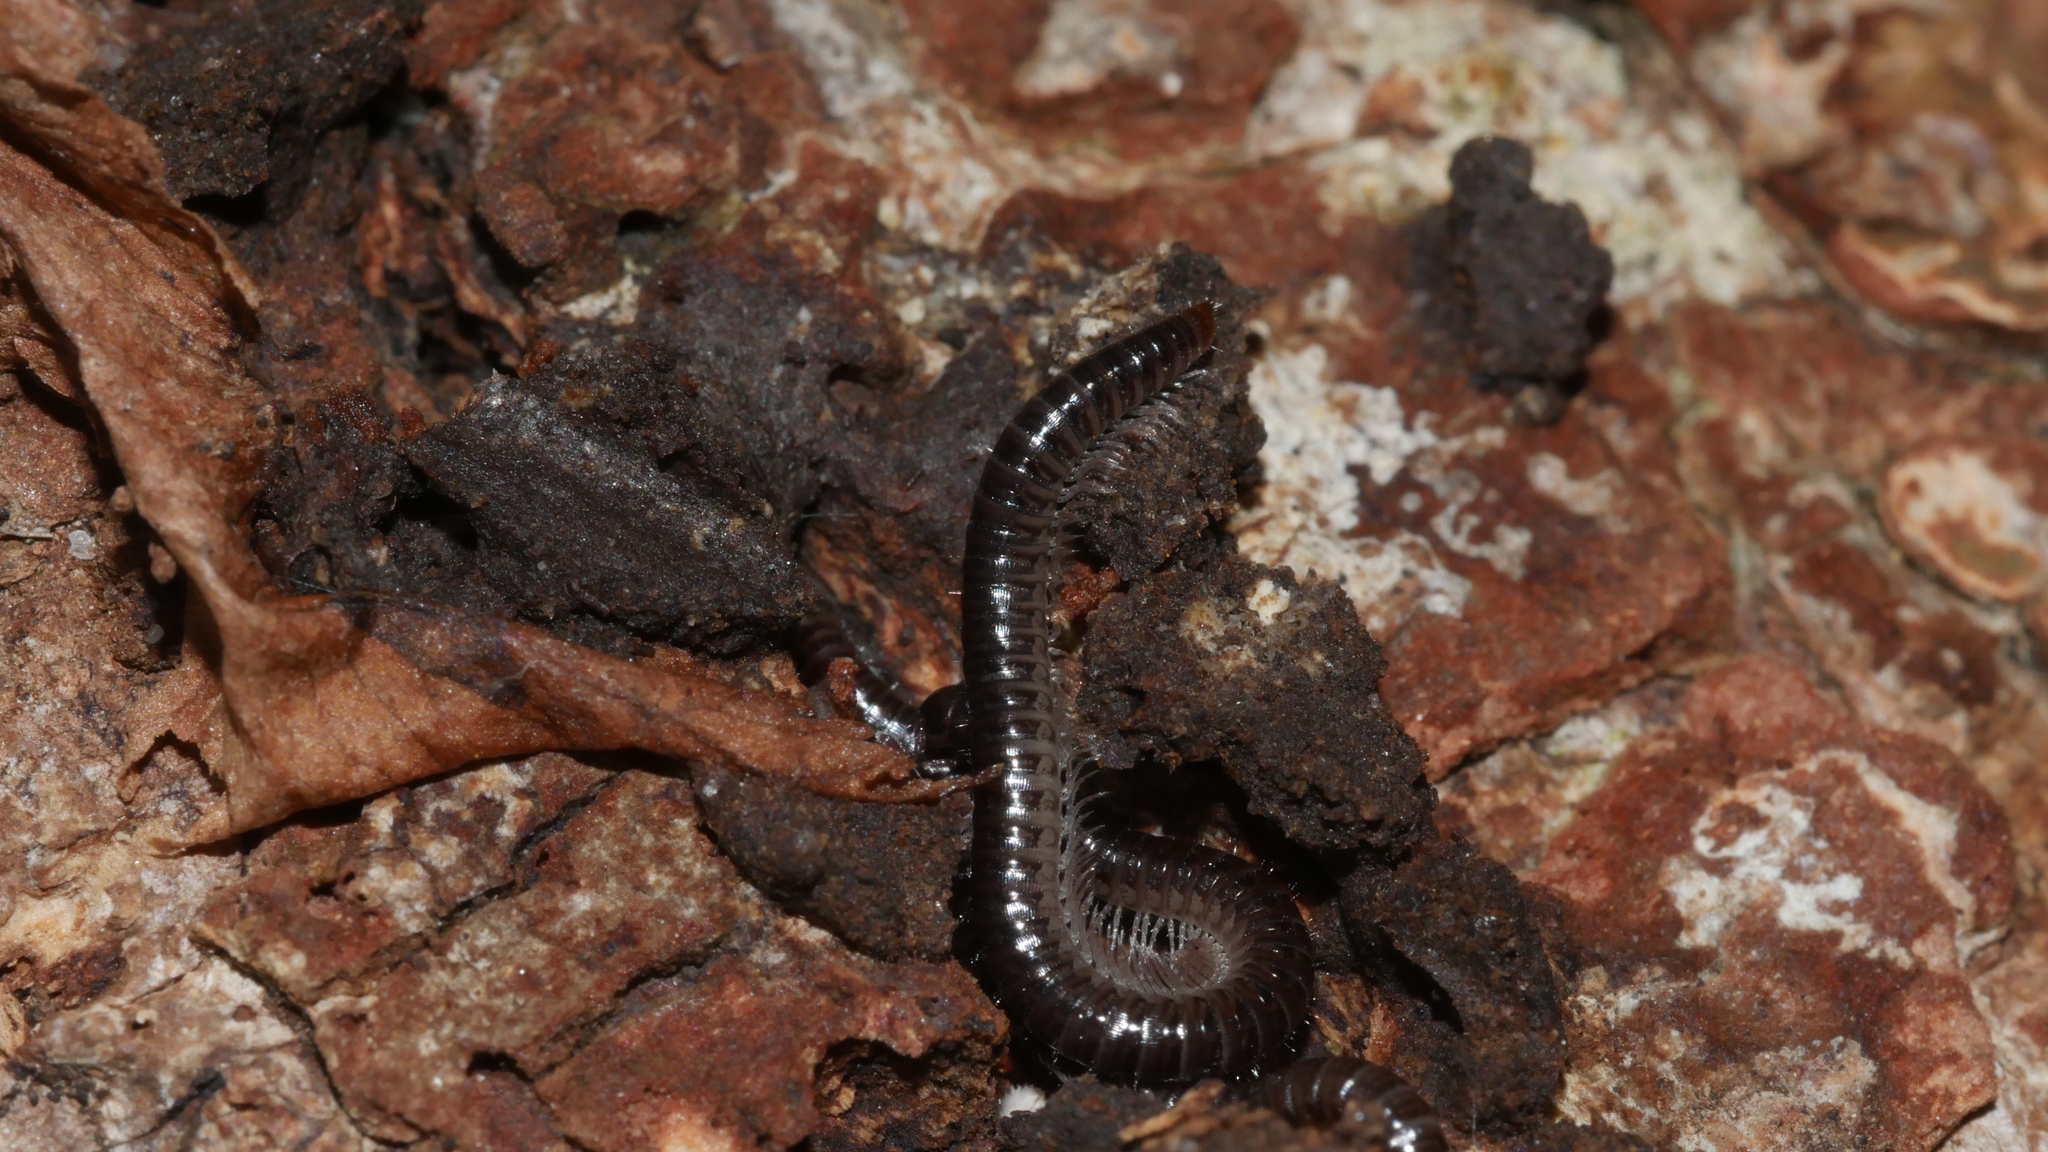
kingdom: Animalia
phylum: Arthropoda
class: Diplopoda
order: Julida
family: Julidae
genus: Ophyiulus
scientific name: Ophyiulus pilosus
